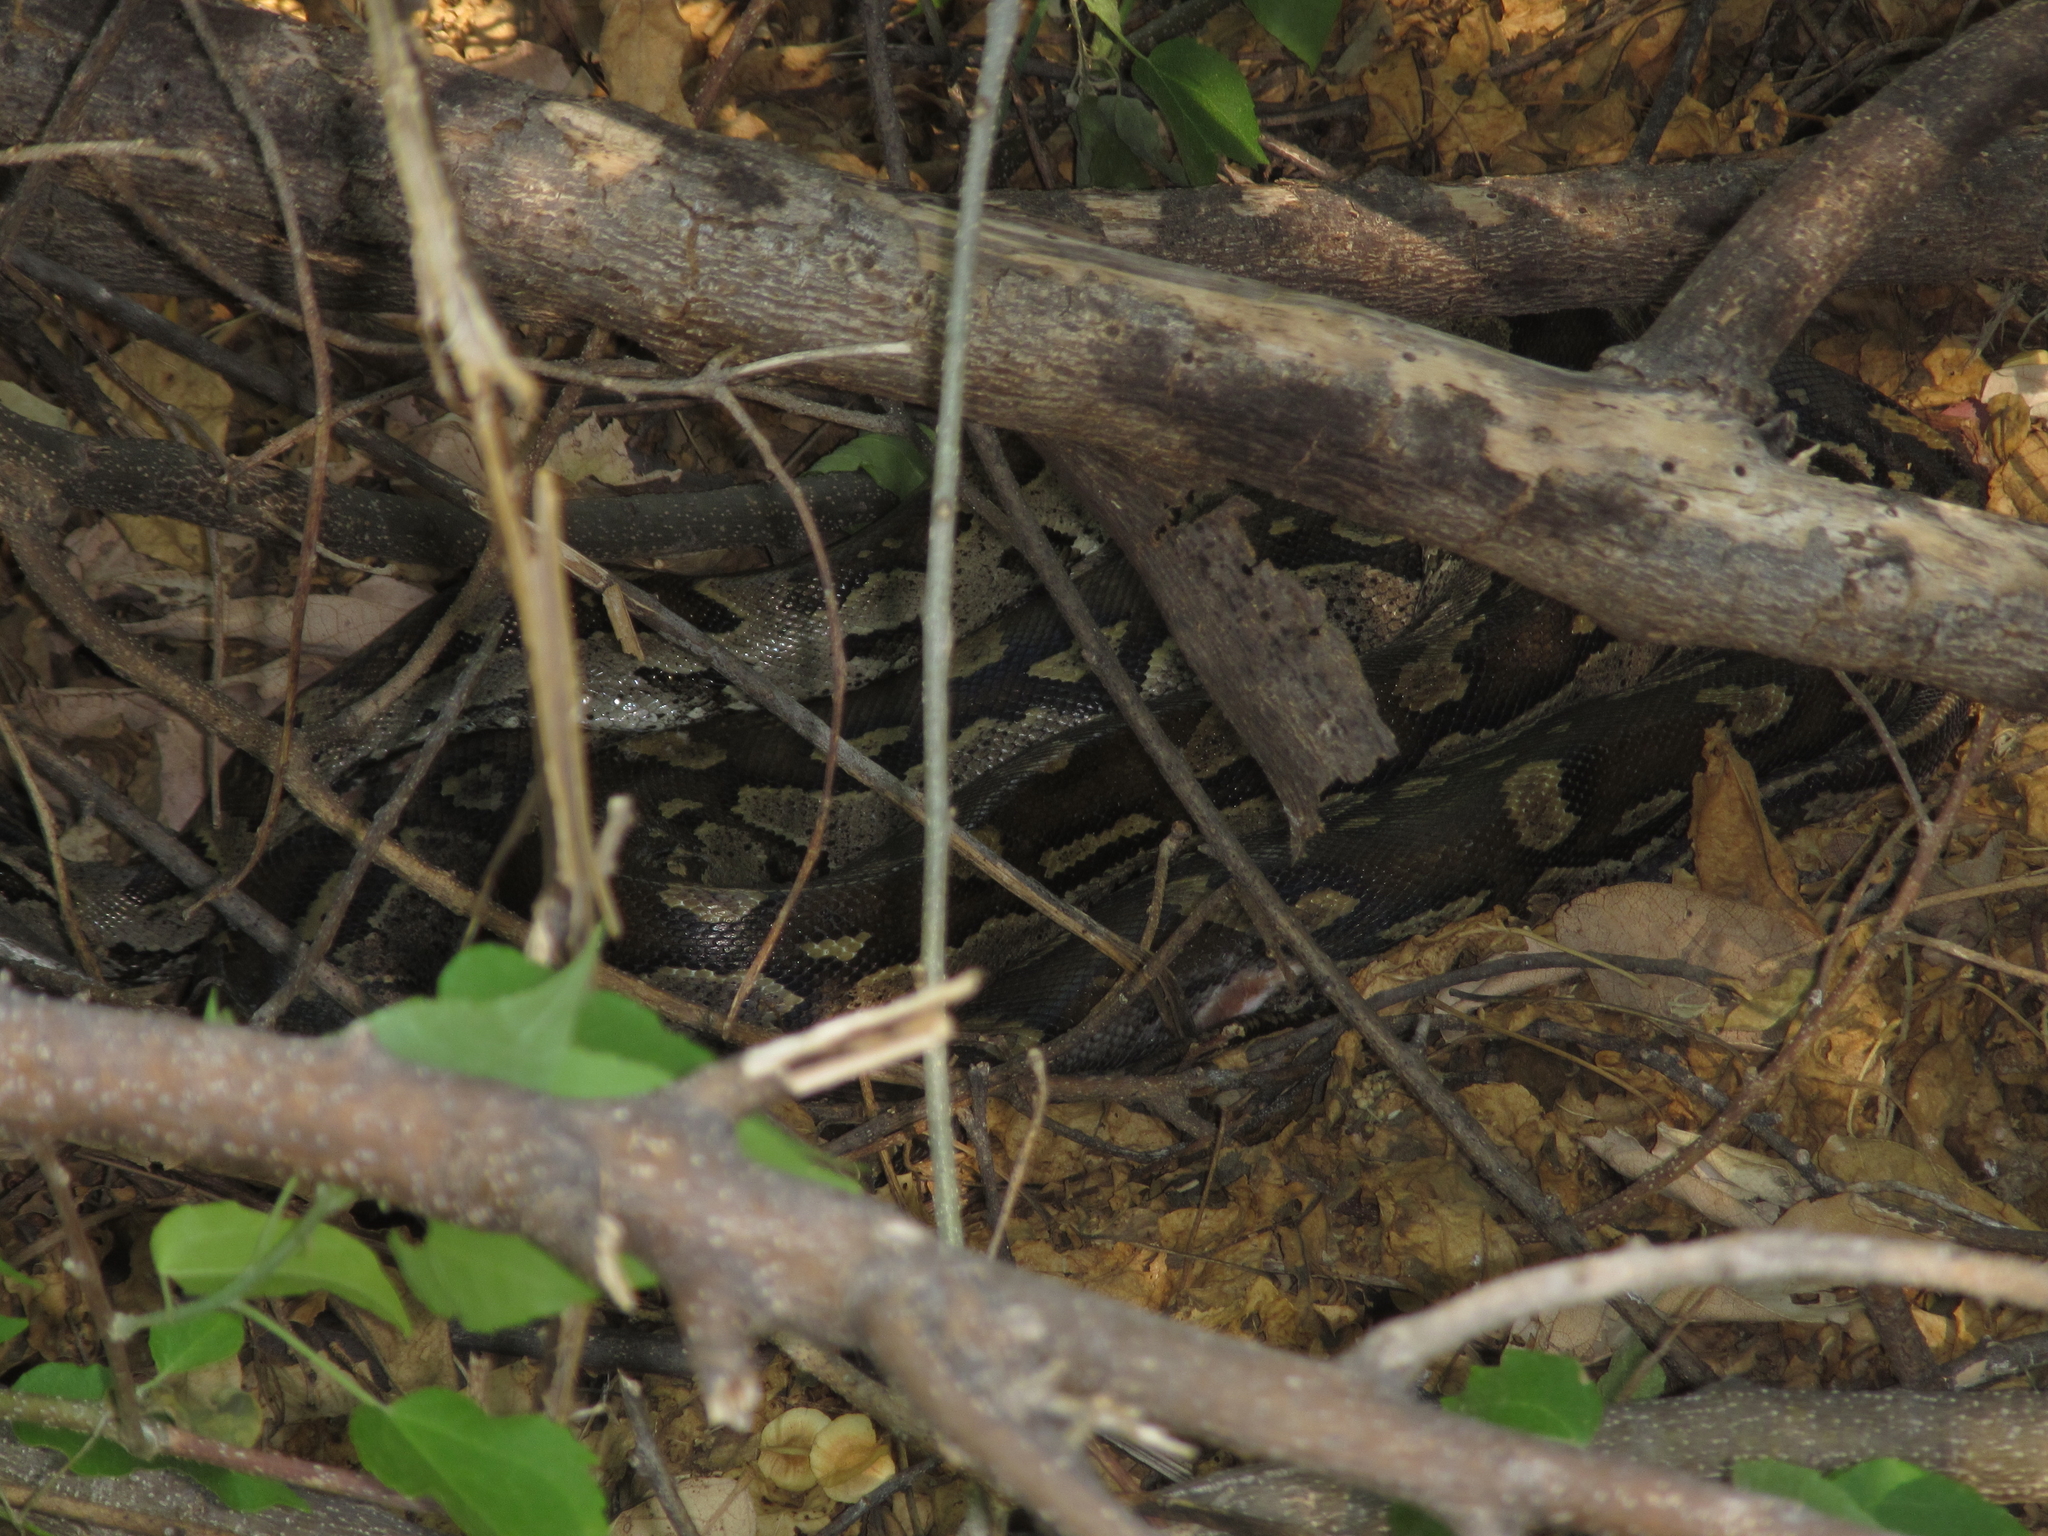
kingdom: Animalia
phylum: Chordata
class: Squamata
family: Pythonidae
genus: Python
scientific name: Python natalensis
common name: Southern african rock python
